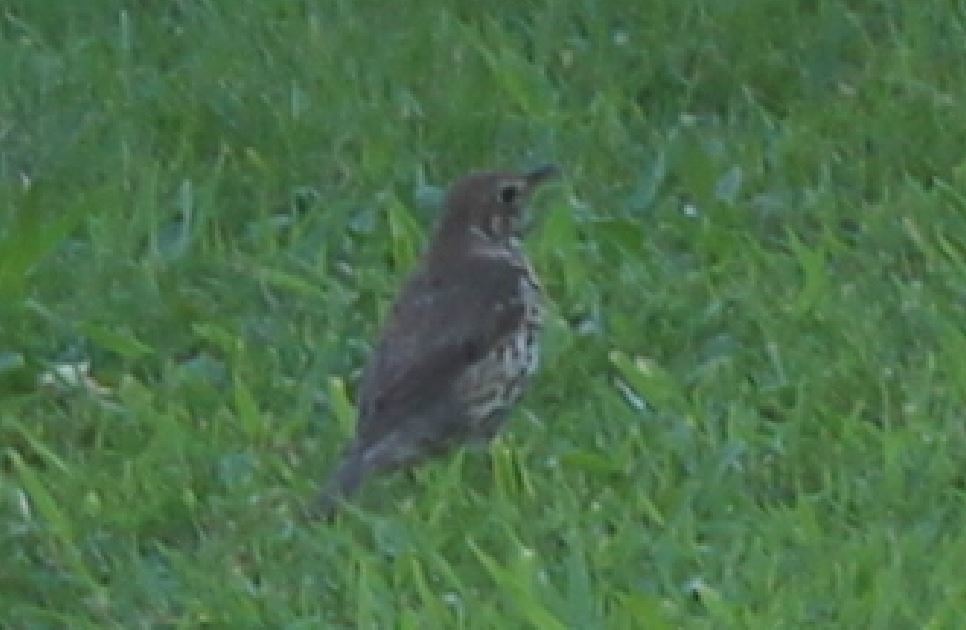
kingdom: Animalia
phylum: Chordata
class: Aves
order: Passeriformes
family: Turdidae
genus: Turdus
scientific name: Turdus philomelos
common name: Song thrush
